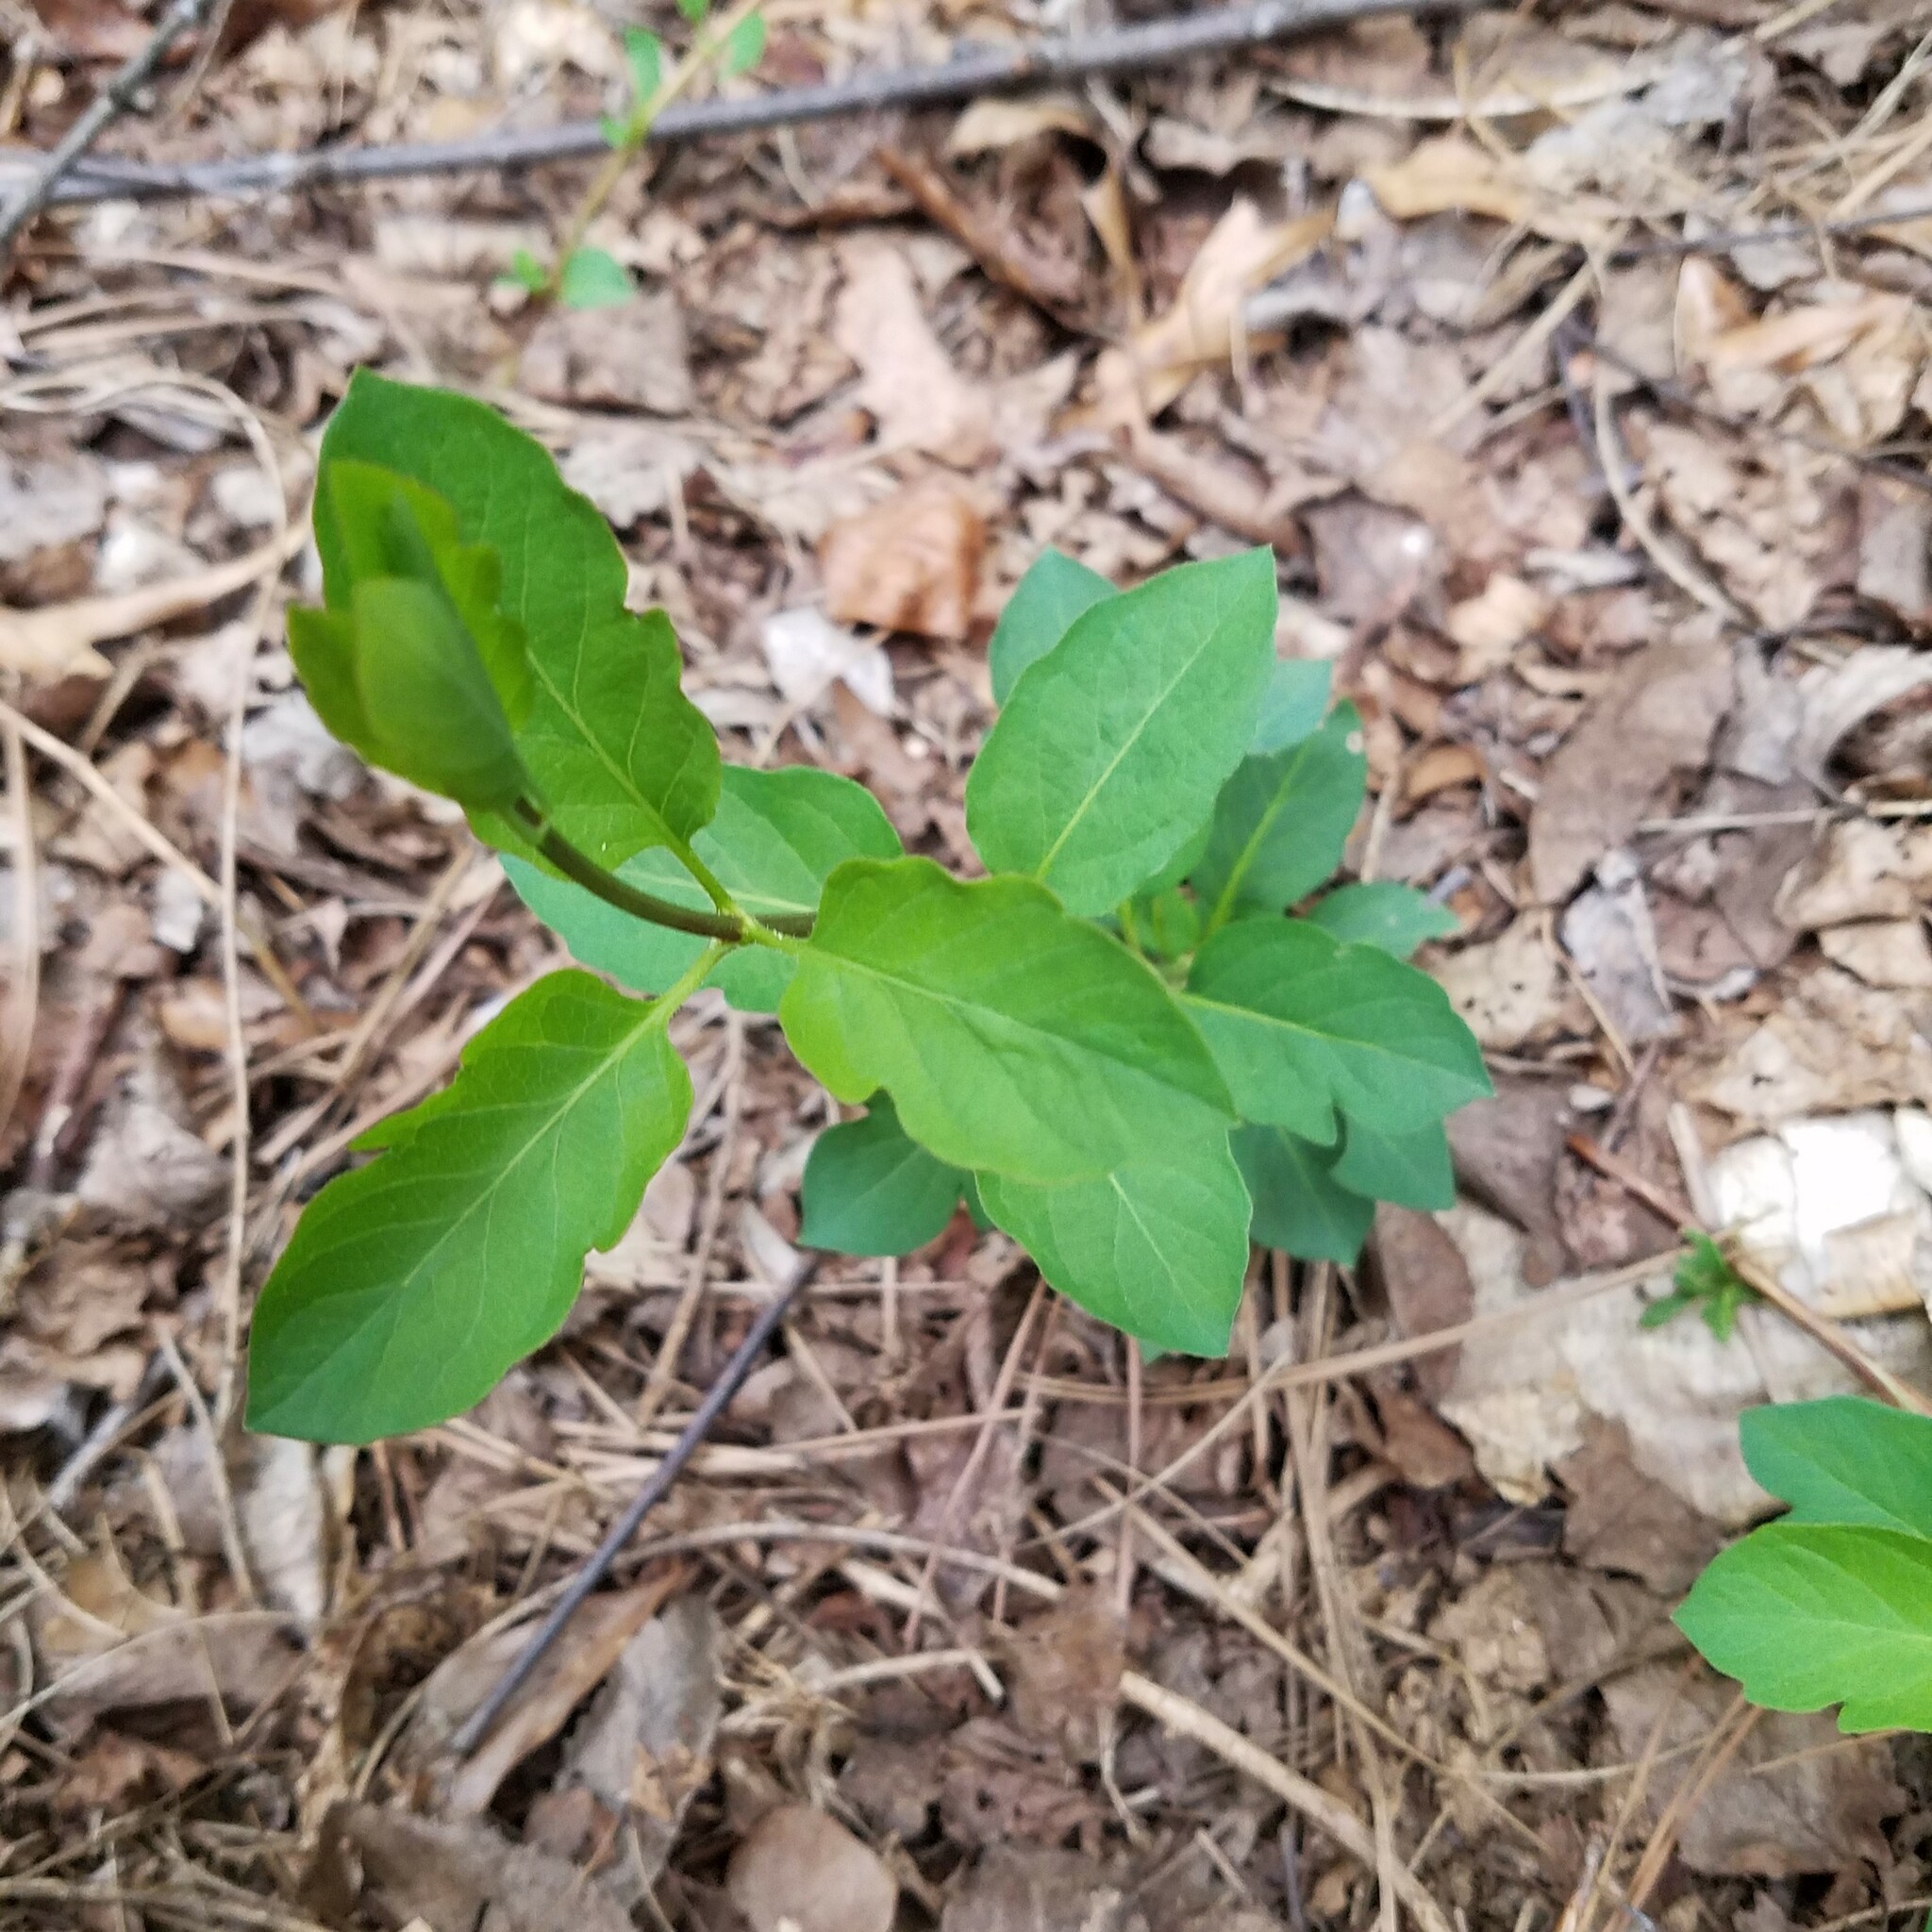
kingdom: Plantae
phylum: Tracheophyta
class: Magnoliopsida
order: Dipsacales
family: Caprifoliaceae
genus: Lonicera
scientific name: Lonicera japonica
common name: Japanese honeysuckle
